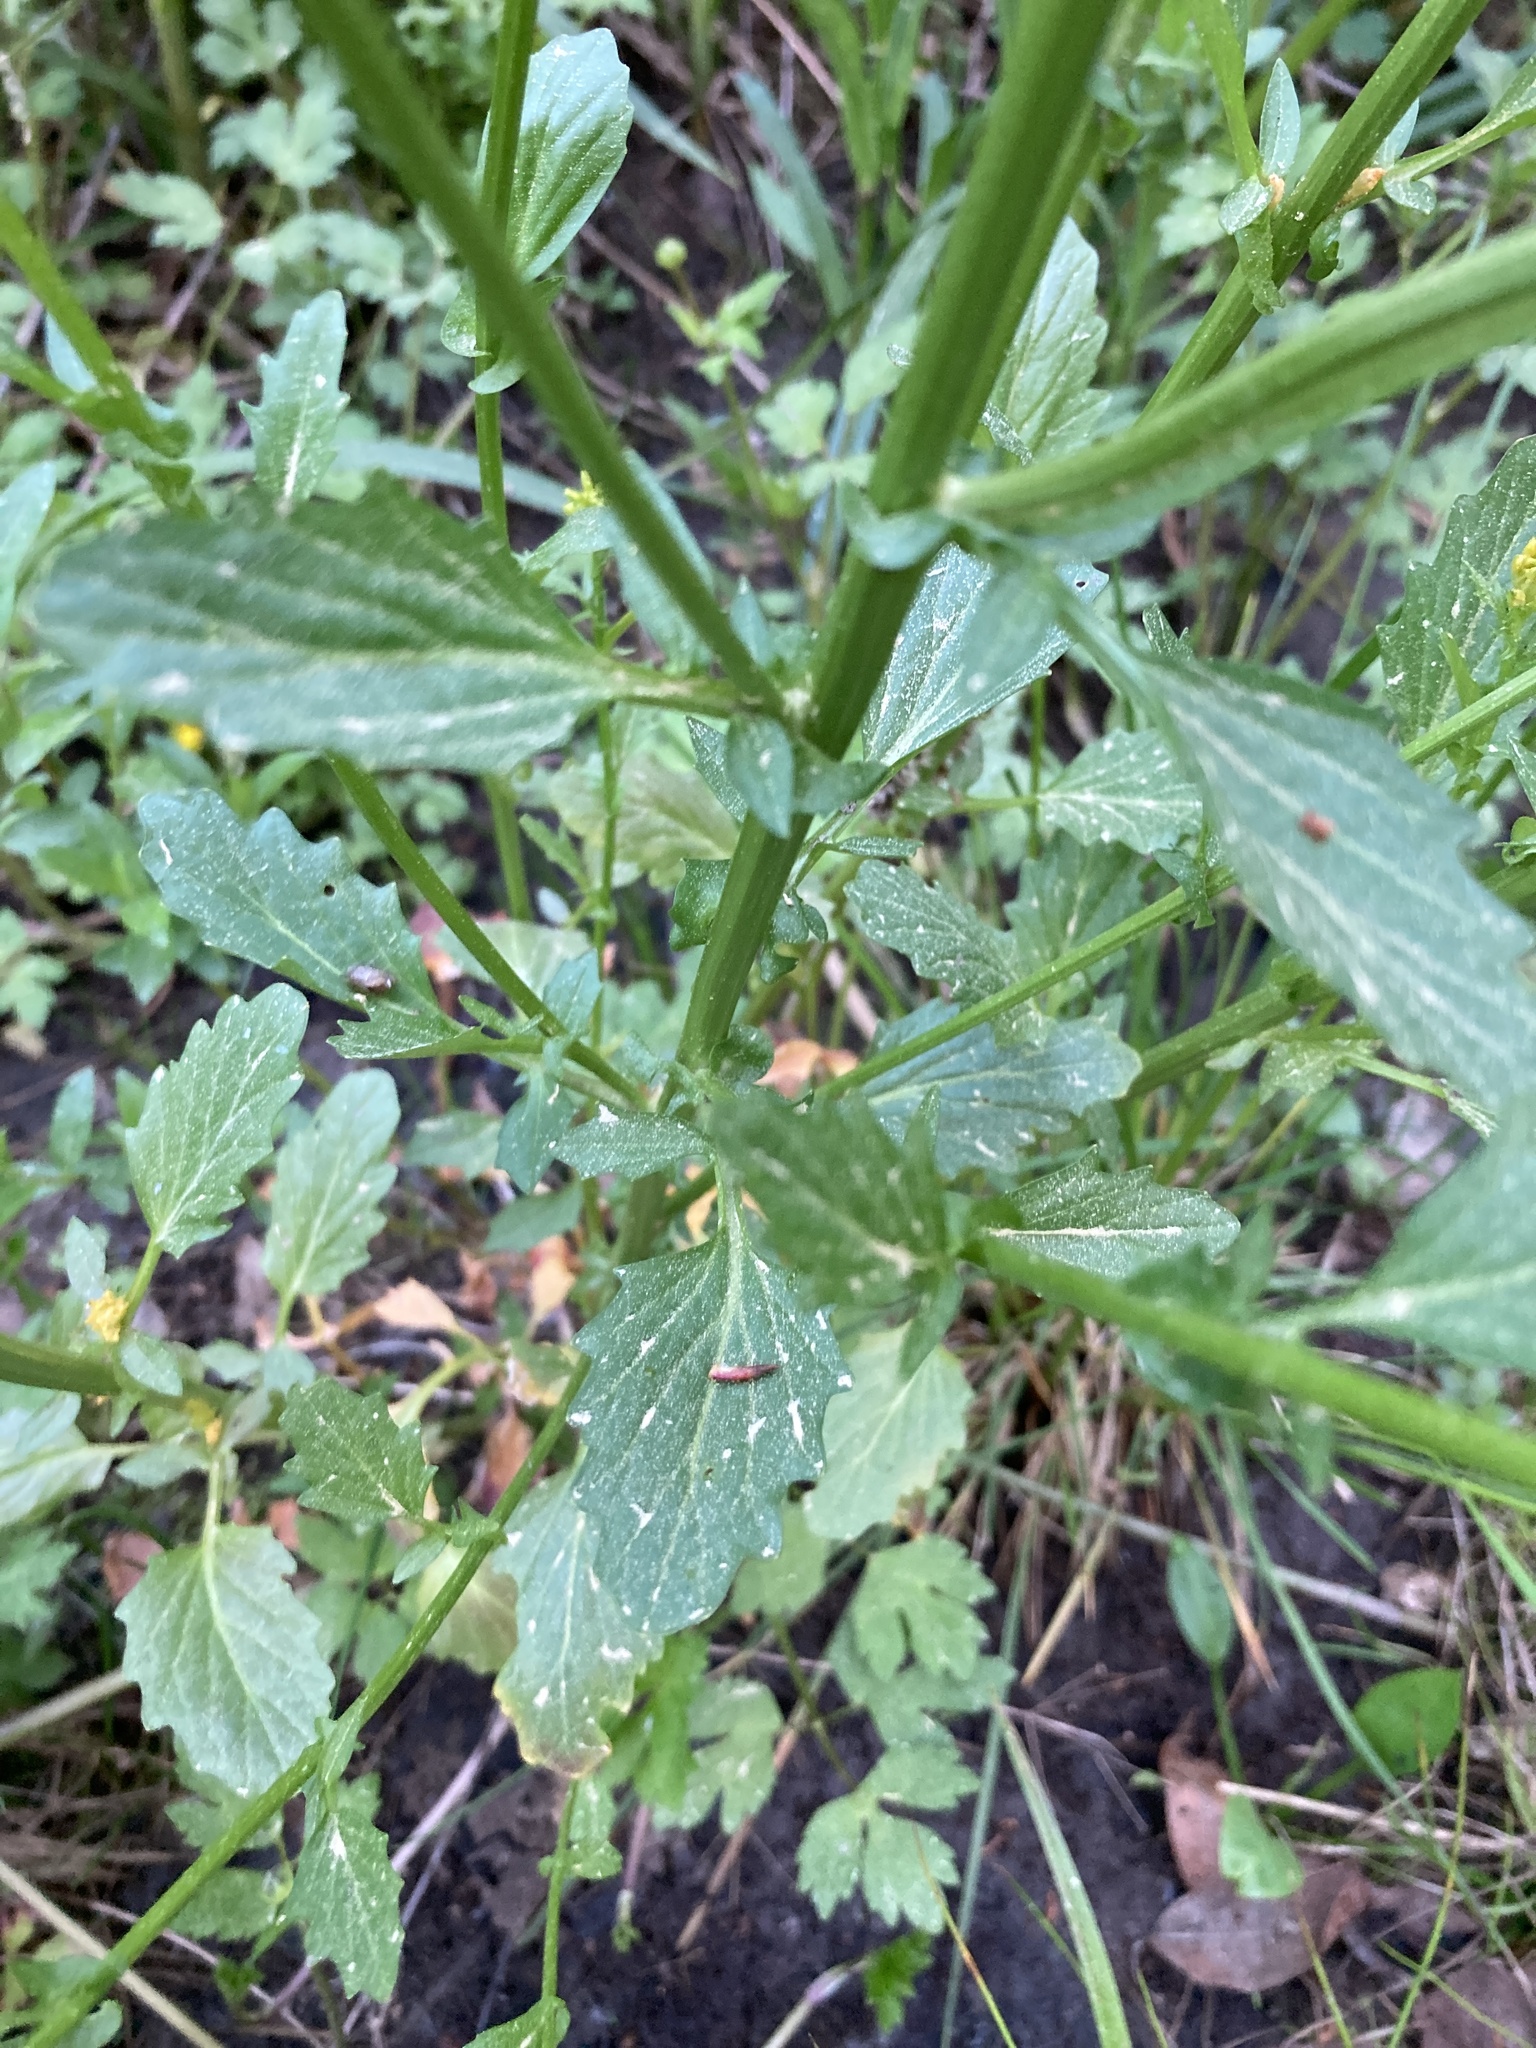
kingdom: Plantae
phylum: Tracheophyta
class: Magnoliopsida
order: Brassicales
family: Brassicaceae
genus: Barbarea
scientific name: Barbarea vulgaris
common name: Cressy-greens
